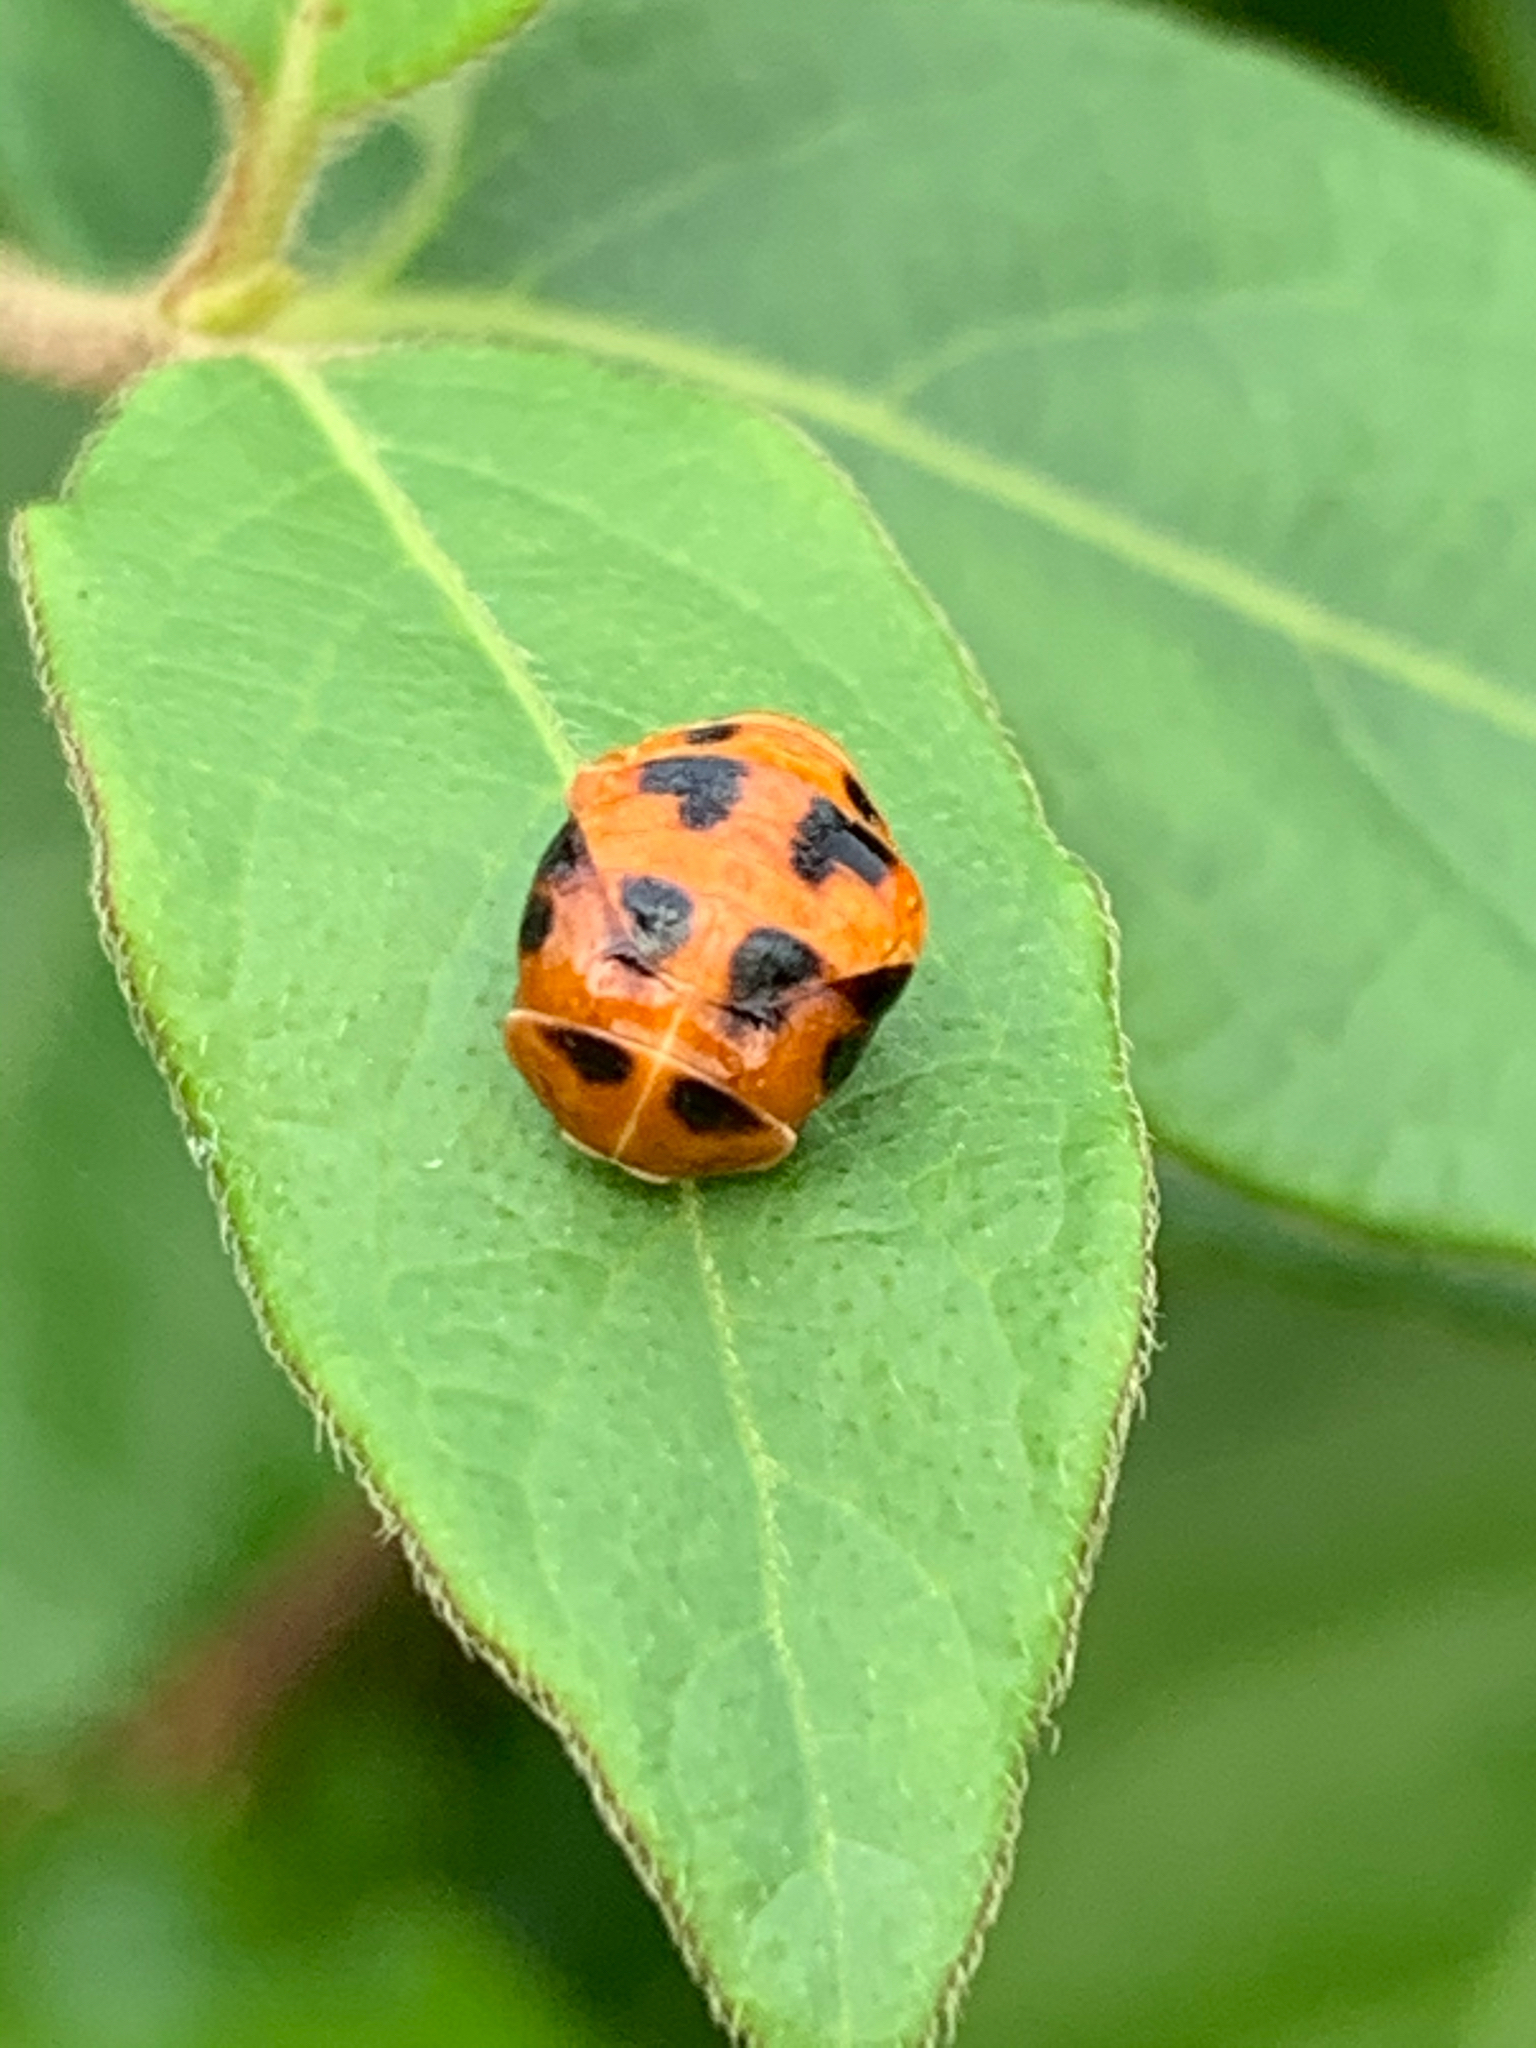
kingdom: Animalia
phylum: Arthropoda
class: Insecta
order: Coleoptera
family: Coccinellidae
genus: Harmonia
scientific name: Harmonia axyridis
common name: Harlequin ladybird
